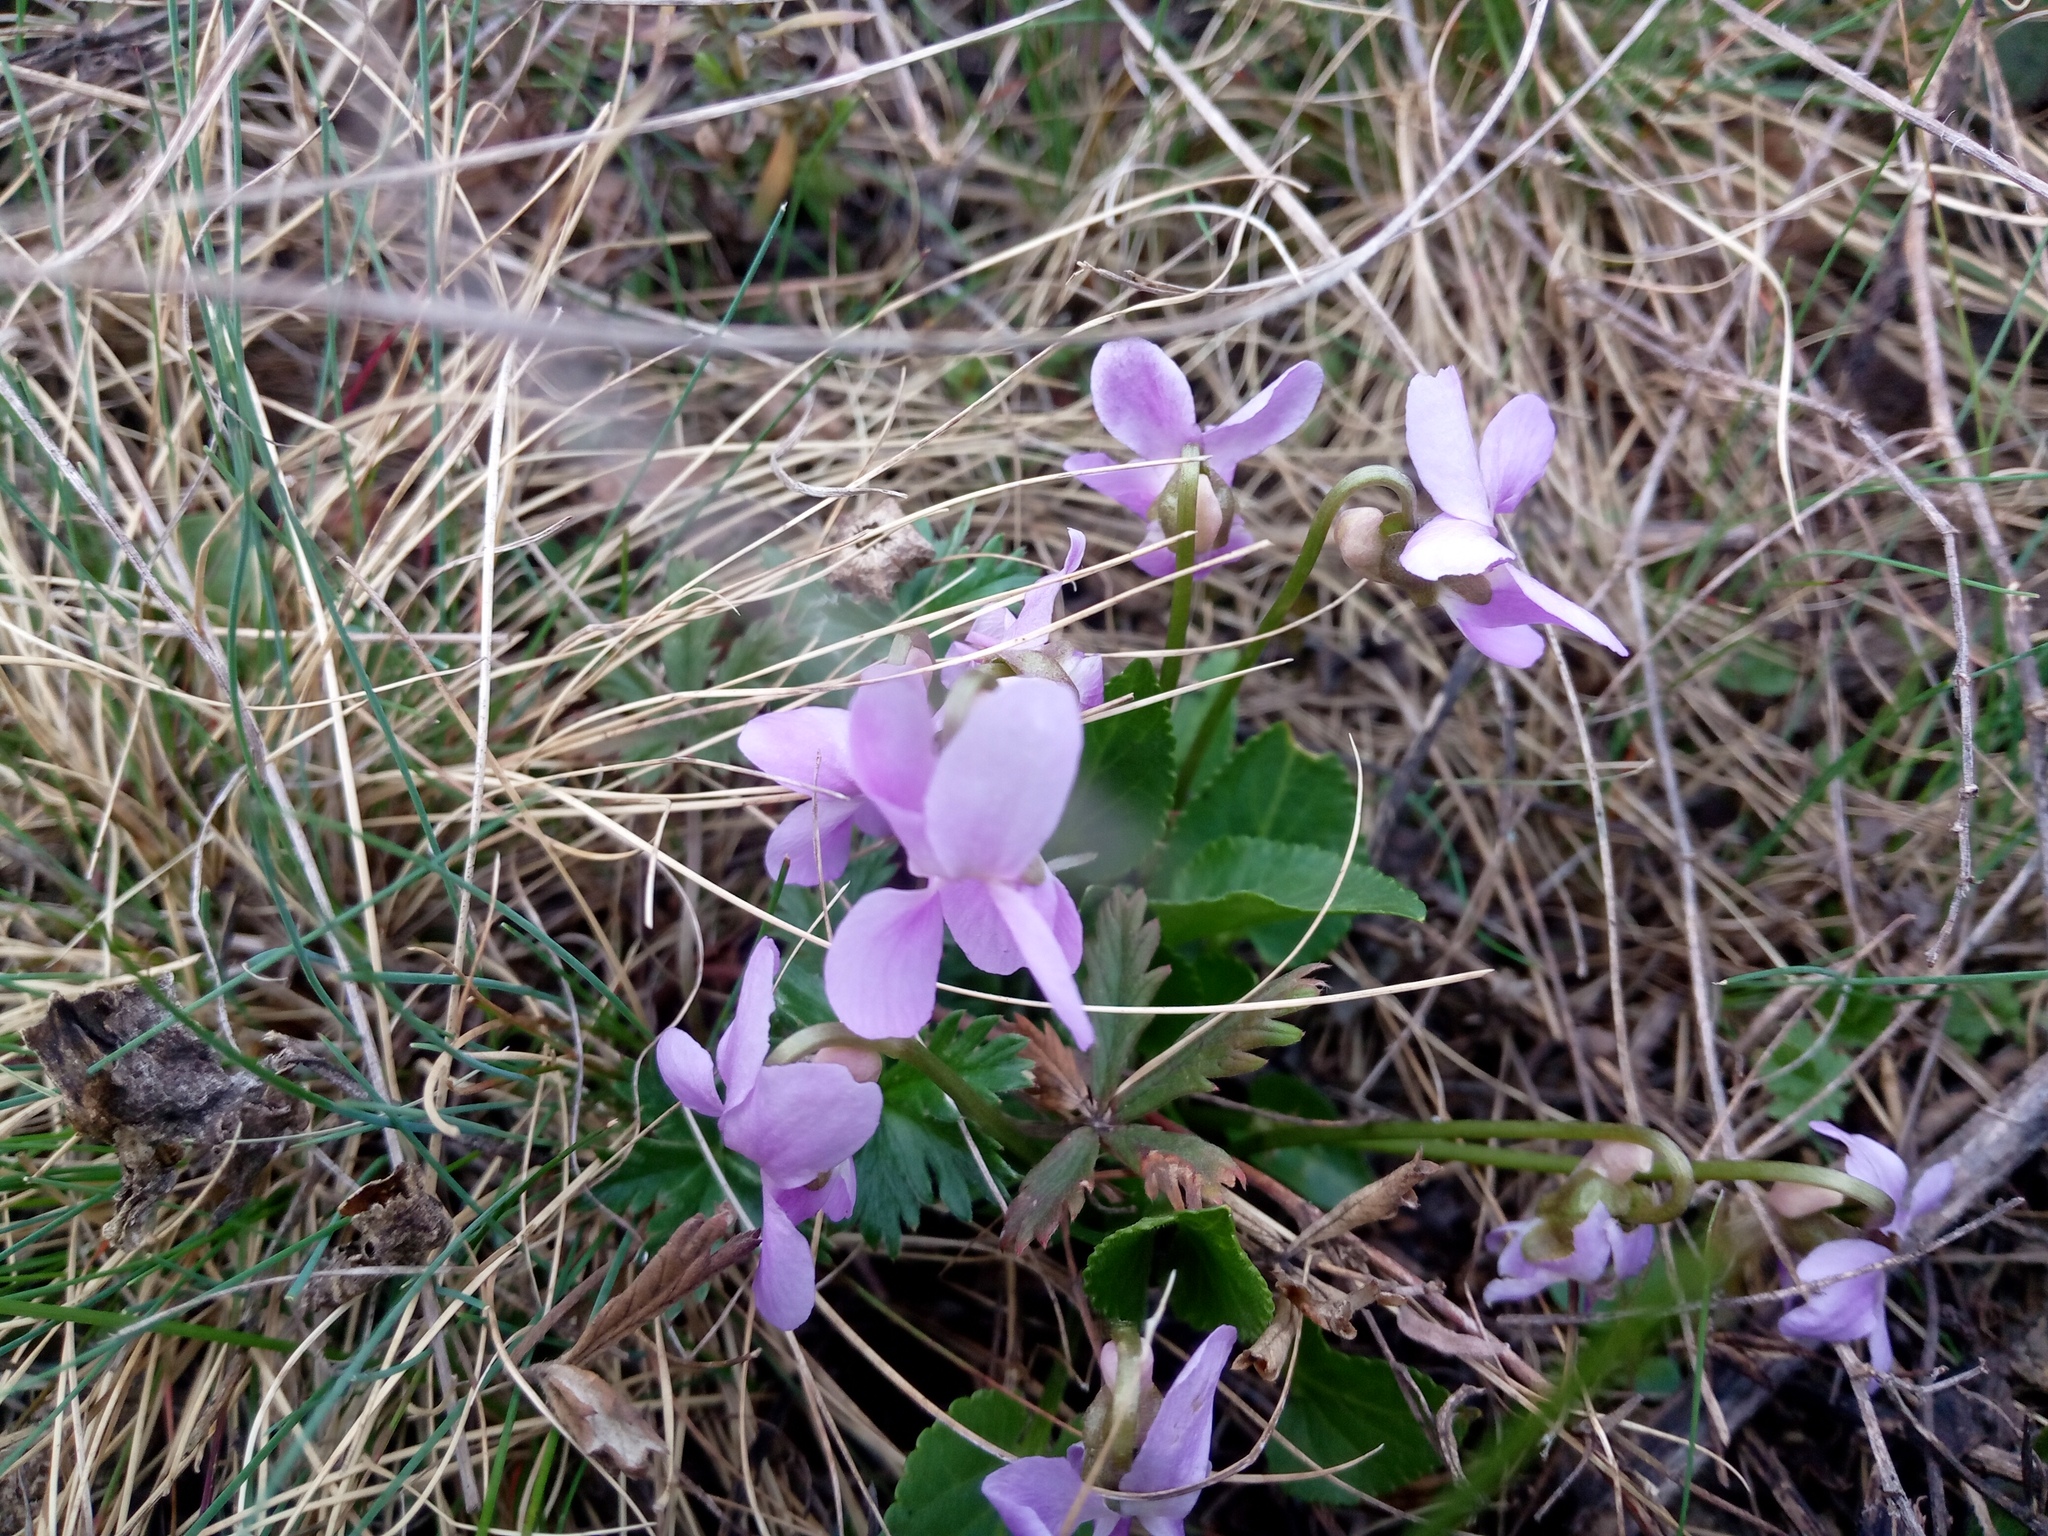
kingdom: Plantae
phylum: Tracheophyta
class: Magnoliopsida
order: Malpighiales
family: Violaceae
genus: Viola
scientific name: Viola ambigua
